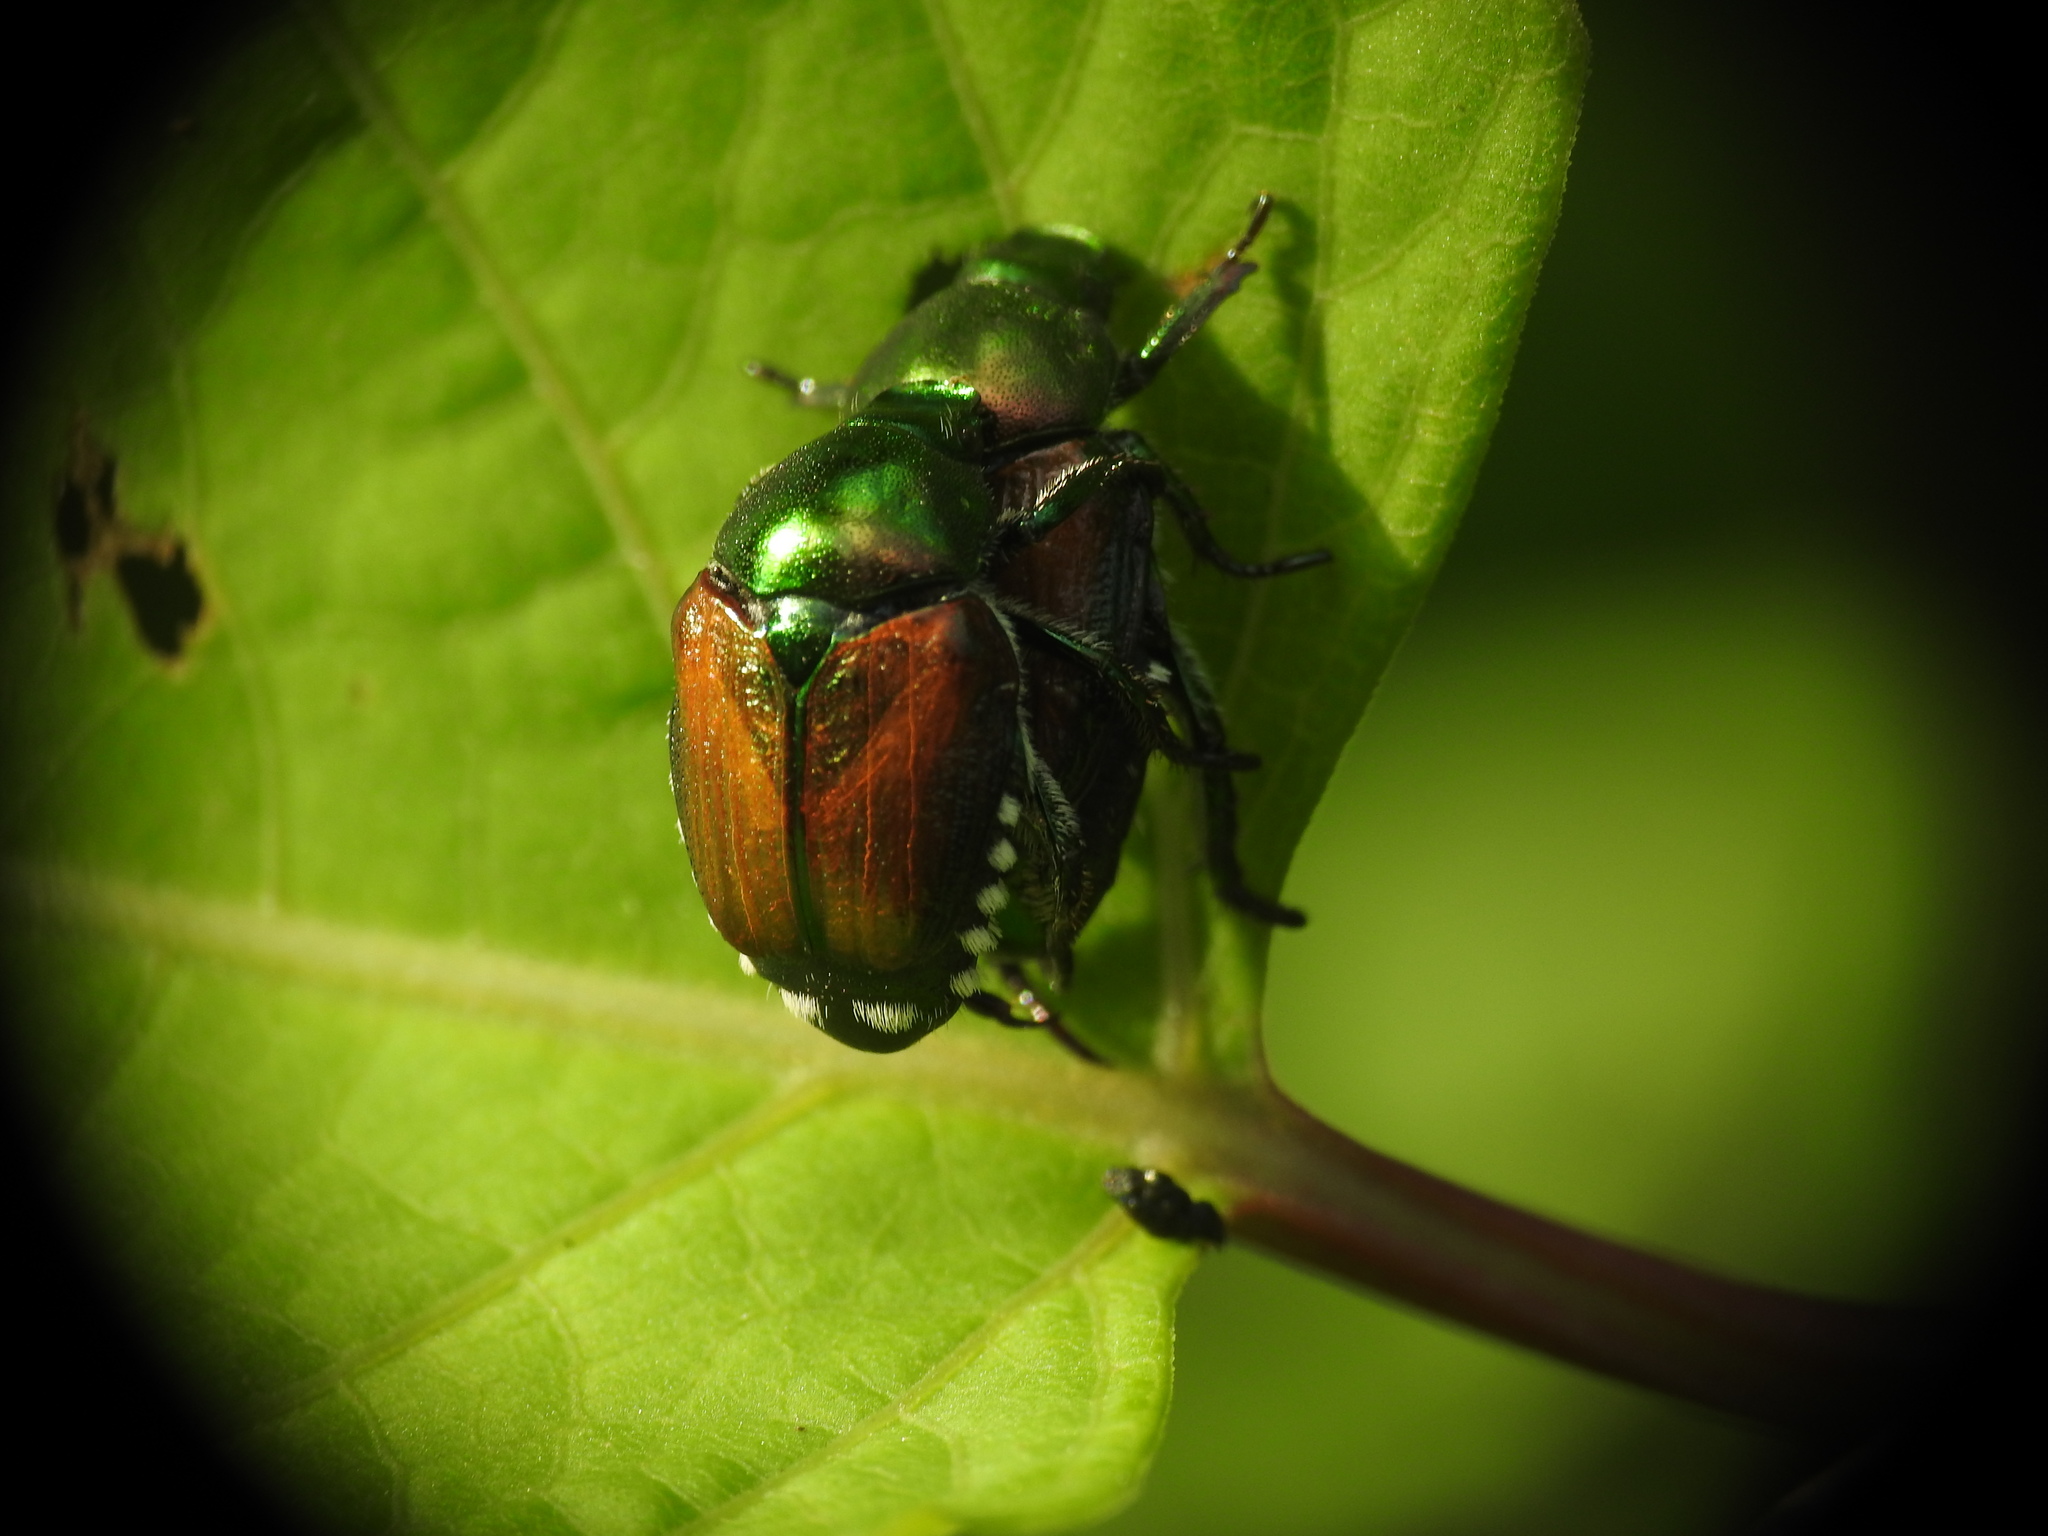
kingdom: Animalia
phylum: Arthropoda
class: Insecta
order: Coleoptera
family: Scarabaeidae
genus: Popillia
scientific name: Popillia japonica
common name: Japanese beetle
